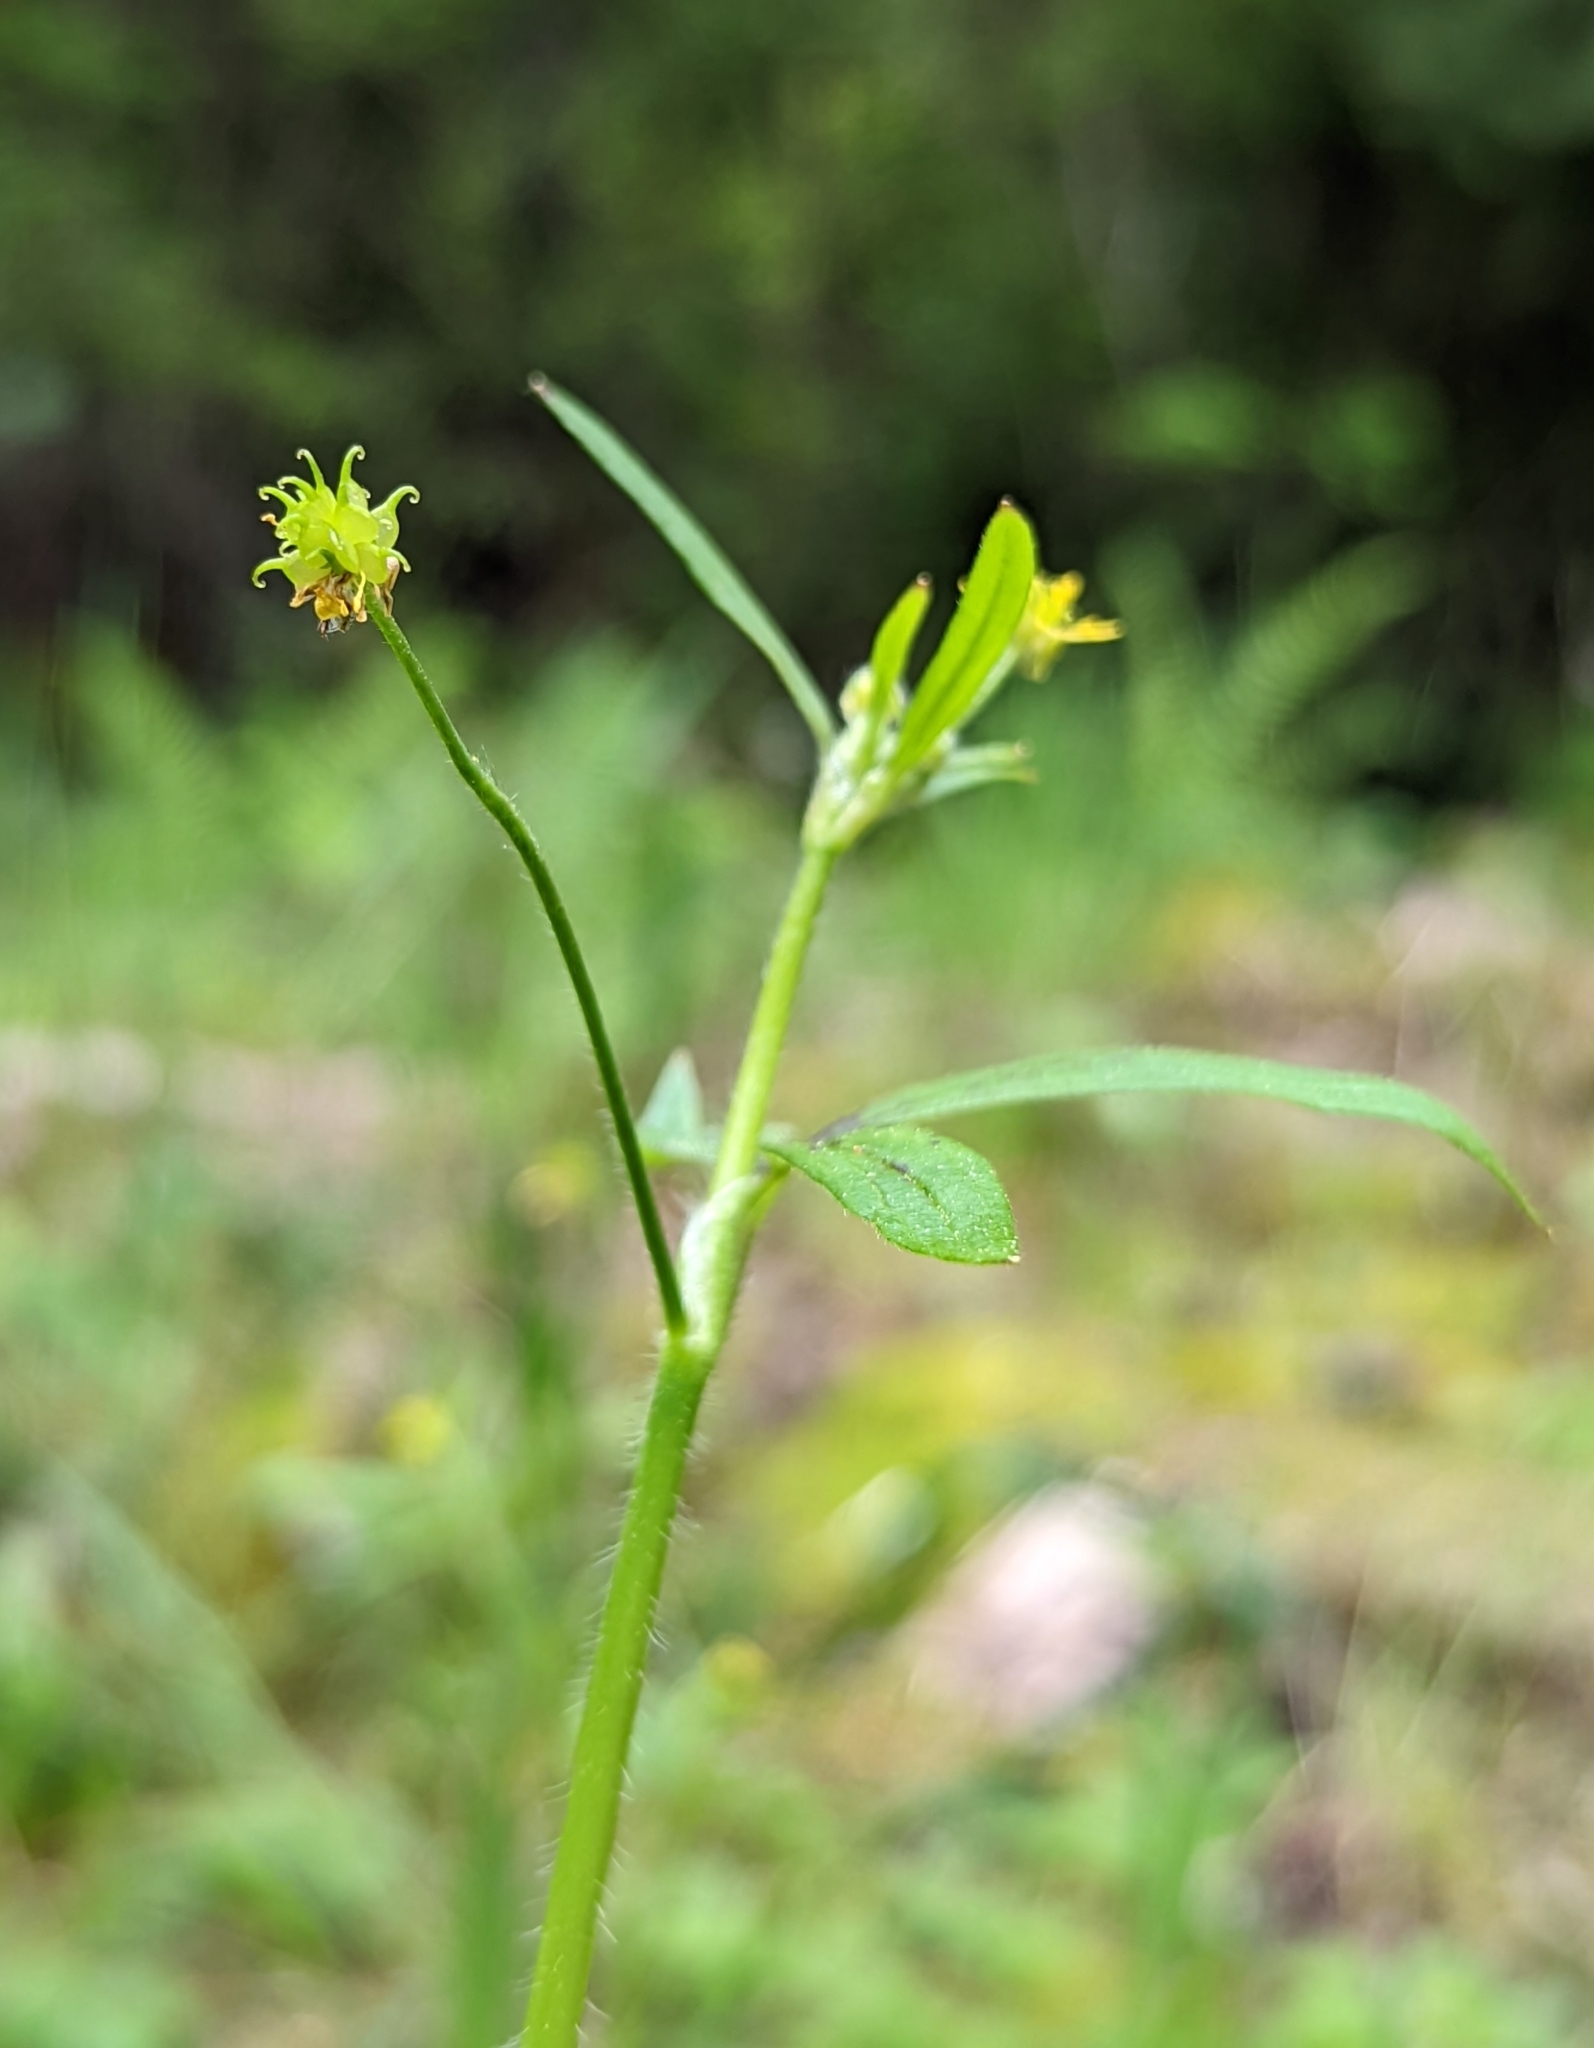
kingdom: Plantae
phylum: Tracheophyta
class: Magnoliopsida
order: Ranunculales
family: Ranunculaceae
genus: Ranunculus
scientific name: Ranunculus uncinatus
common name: Little buttercup
